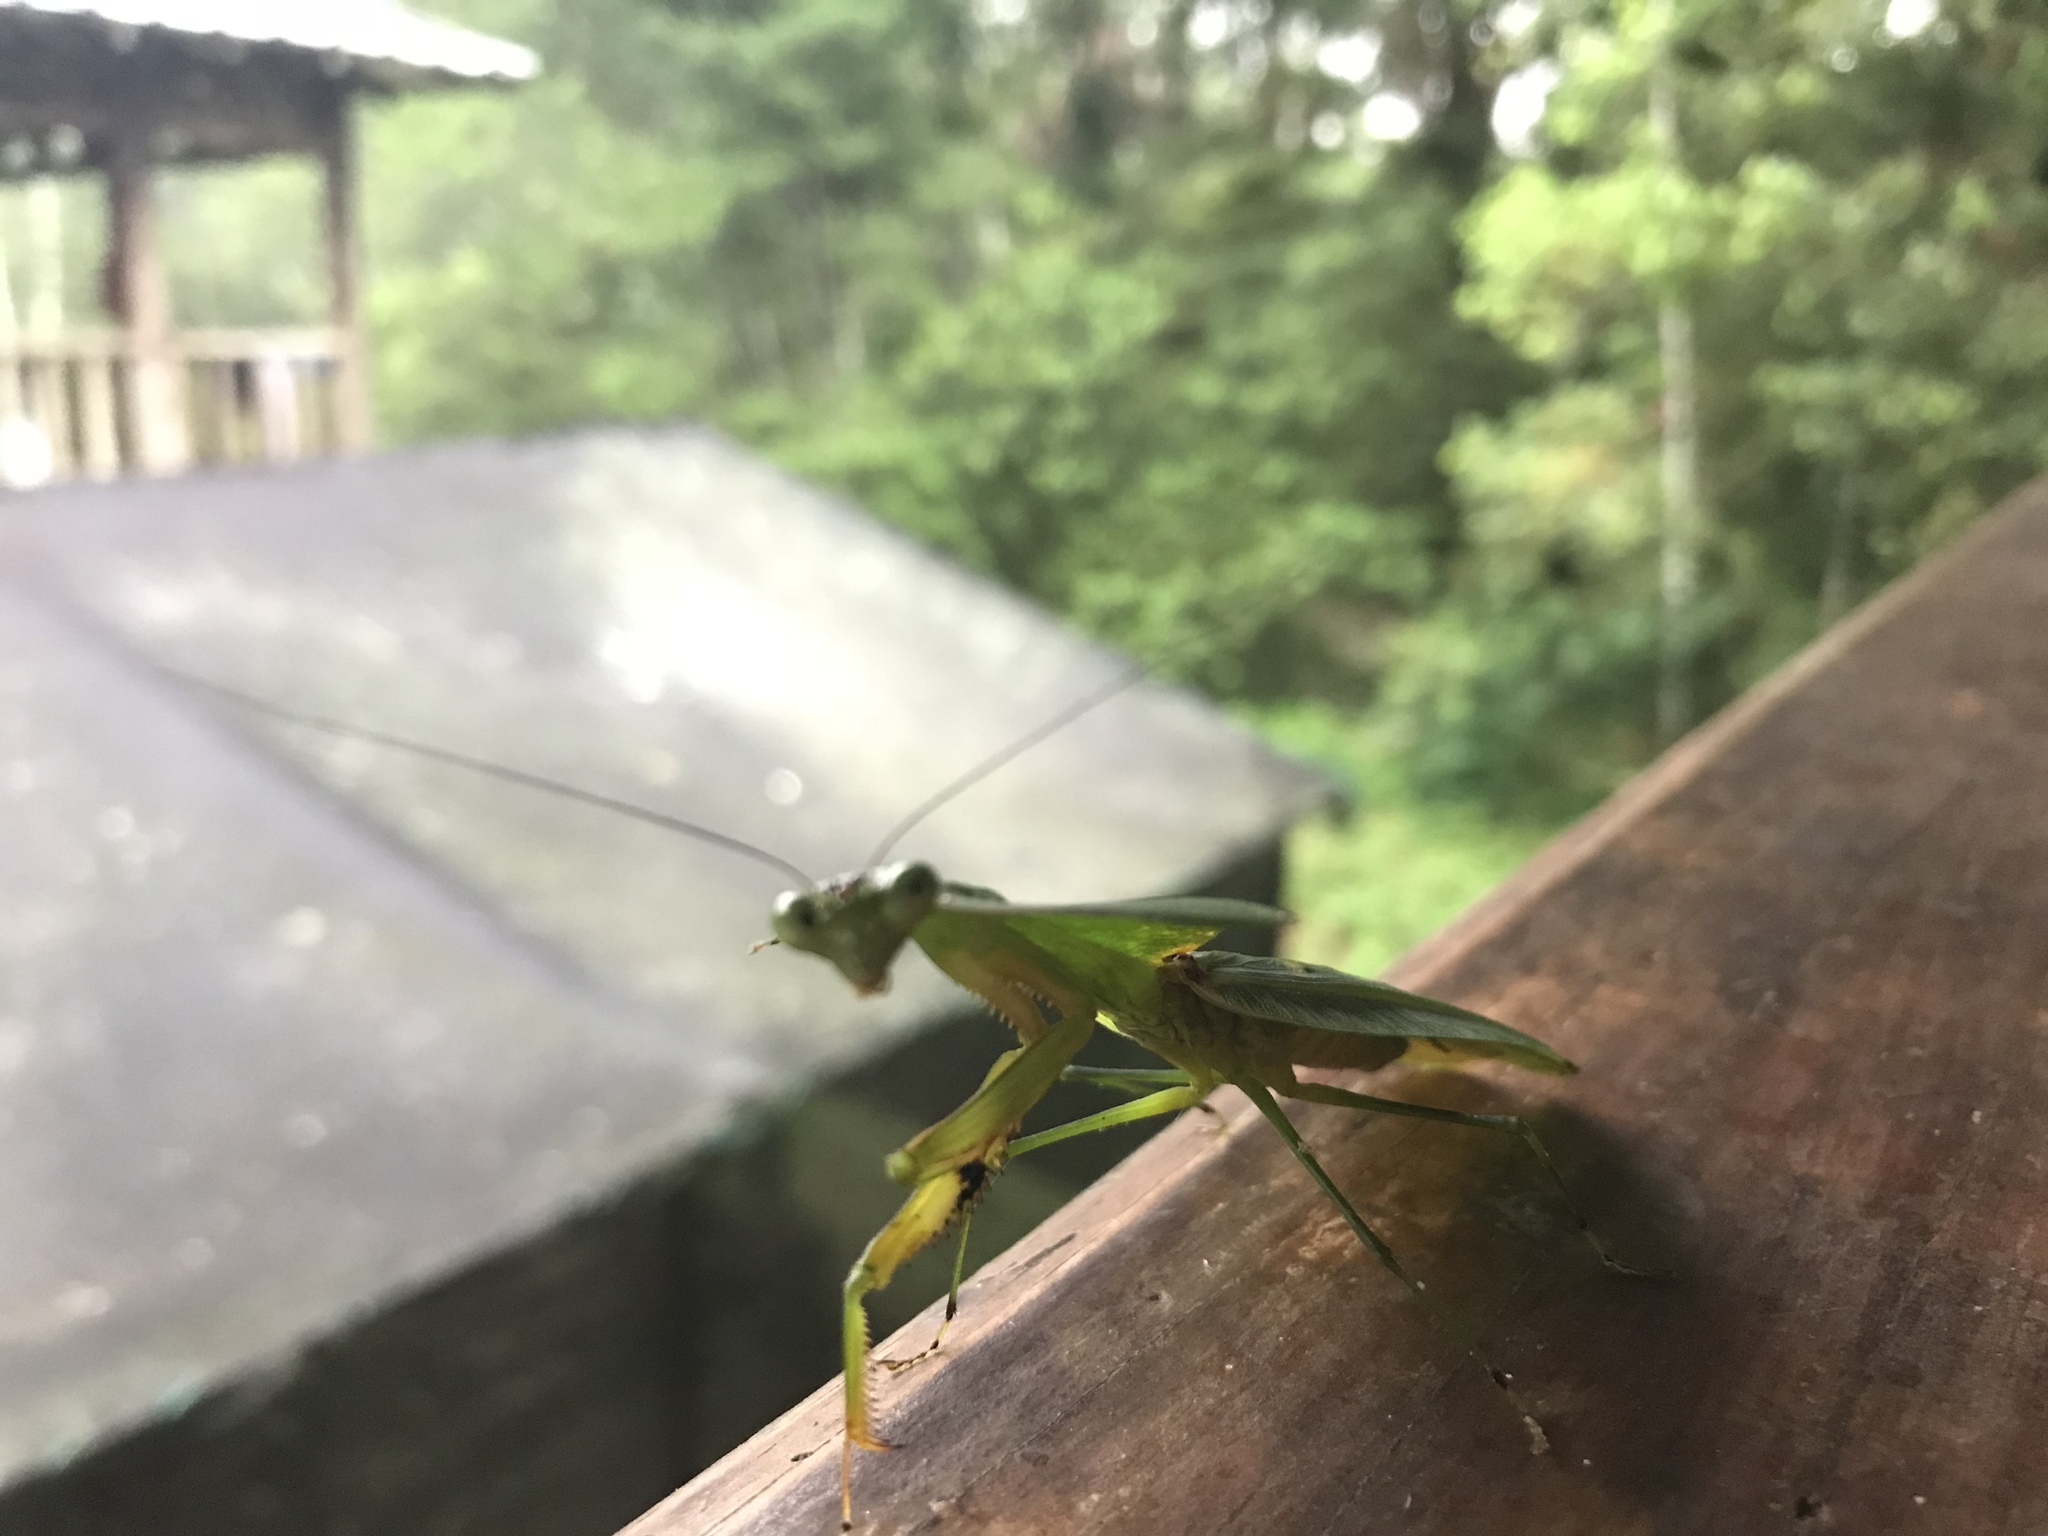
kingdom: Animalia
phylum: Arthropoda
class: Insecta
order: Mantodea
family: Mantidae
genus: Choeradodis
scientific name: Choeradodis stalii
